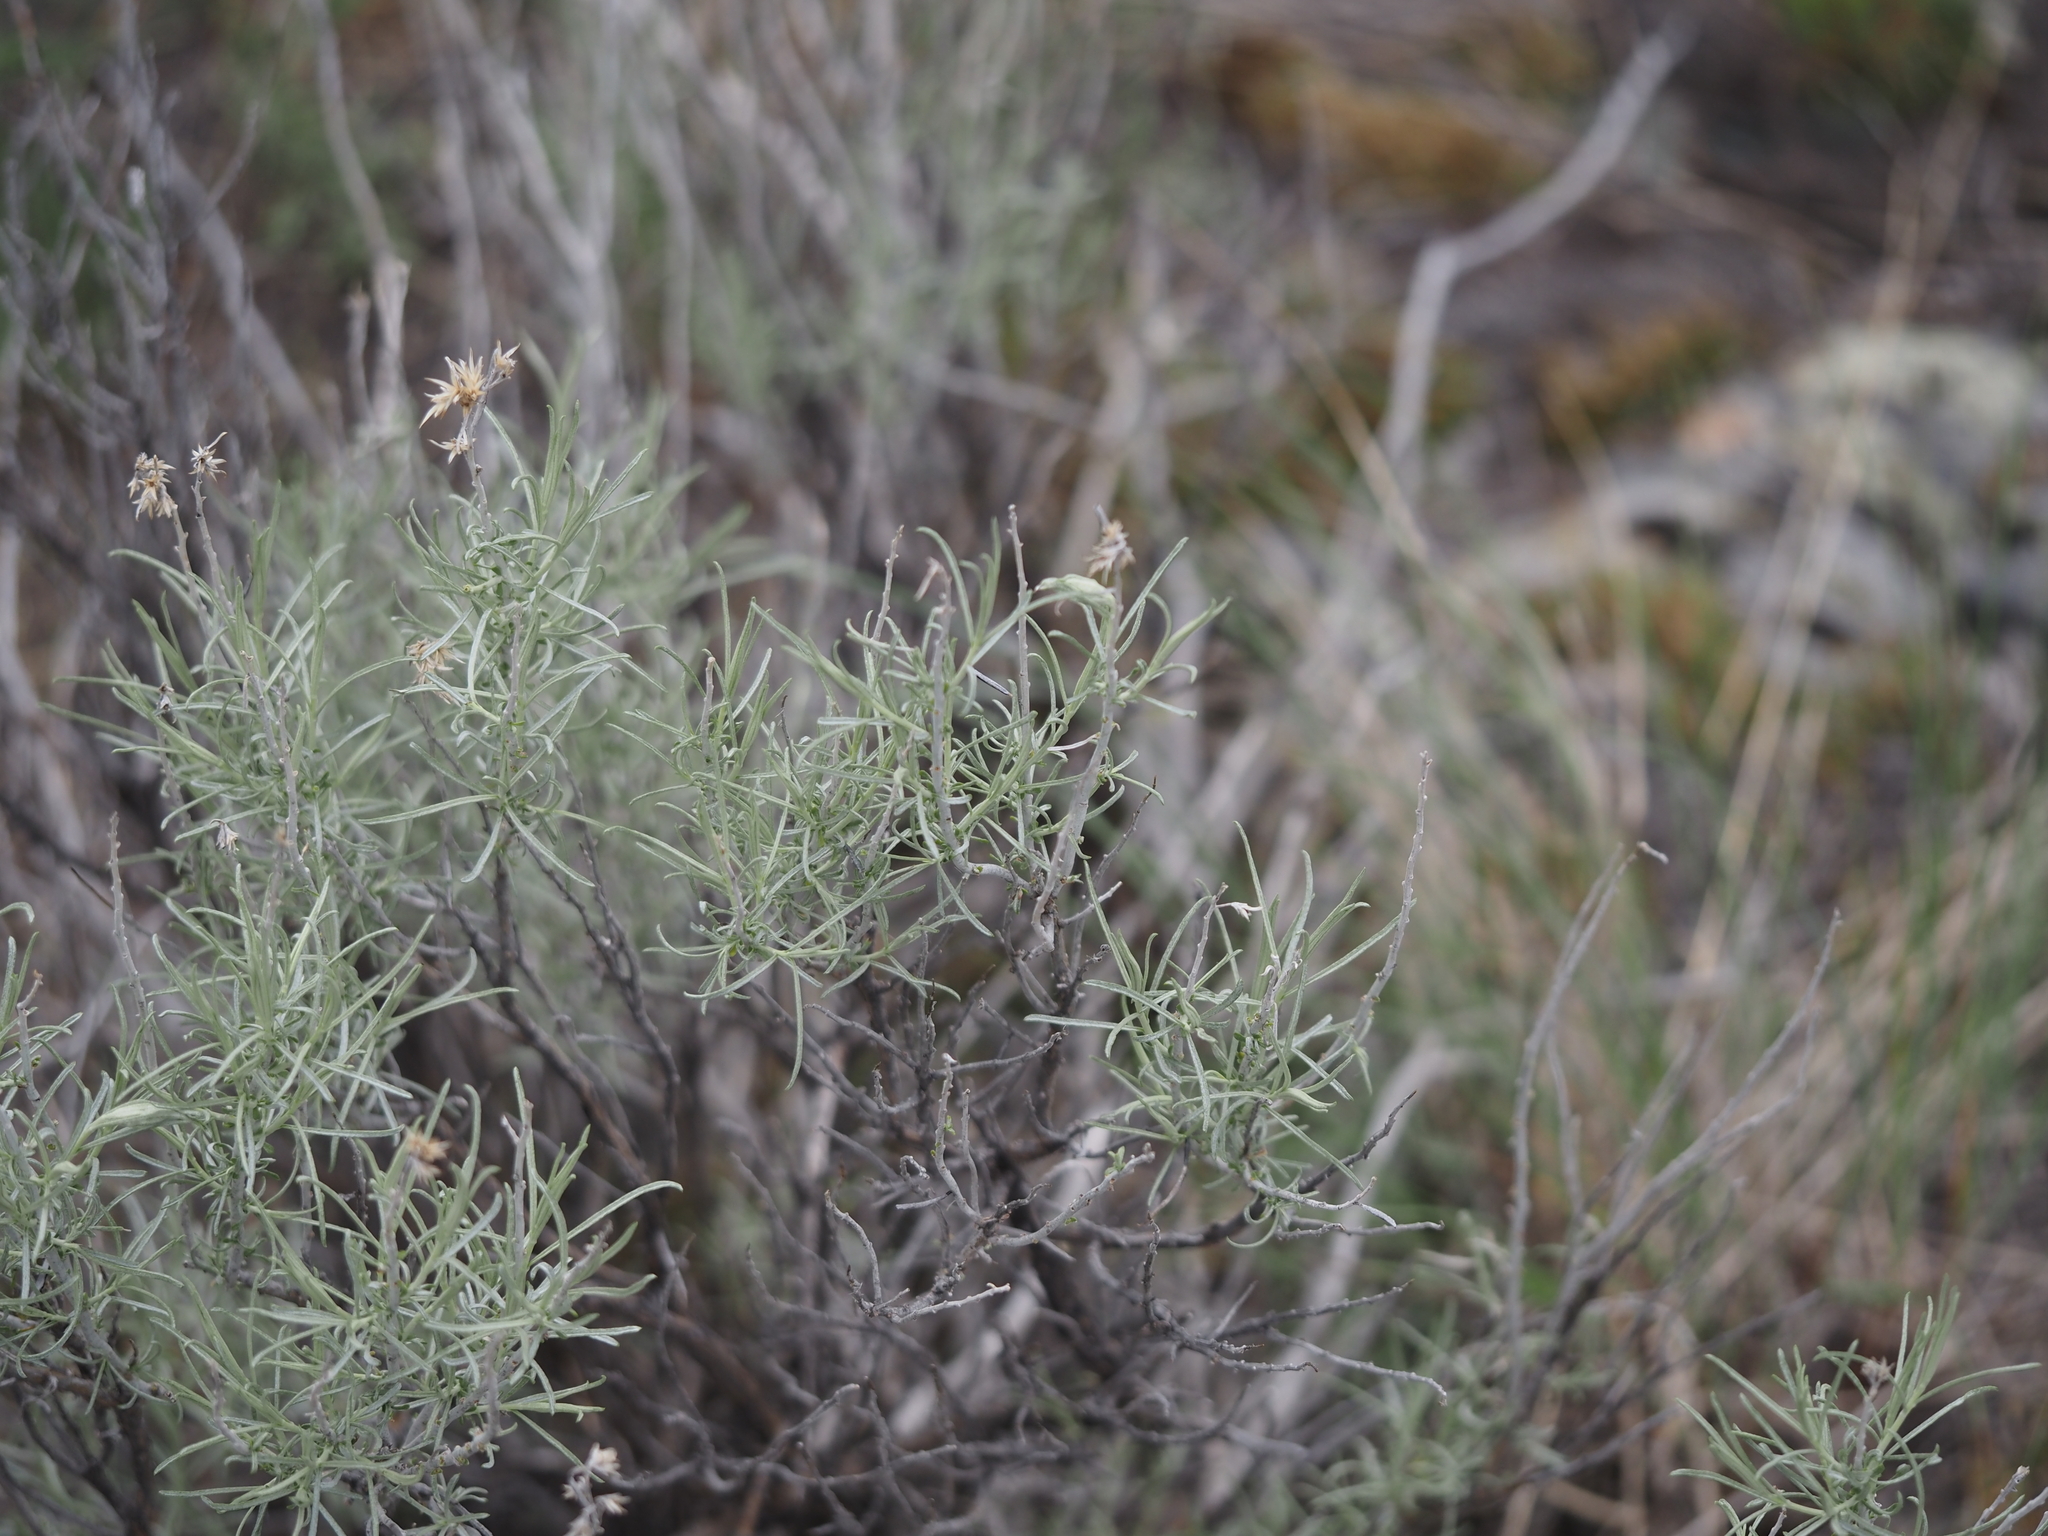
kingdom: Plantae
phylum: Tracheophyta
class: Magnoliopsida
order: Asterales
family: Asteraceae
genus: Ericameria
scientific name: Ericameria nauseosa
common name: Rubber rabbitbrush
